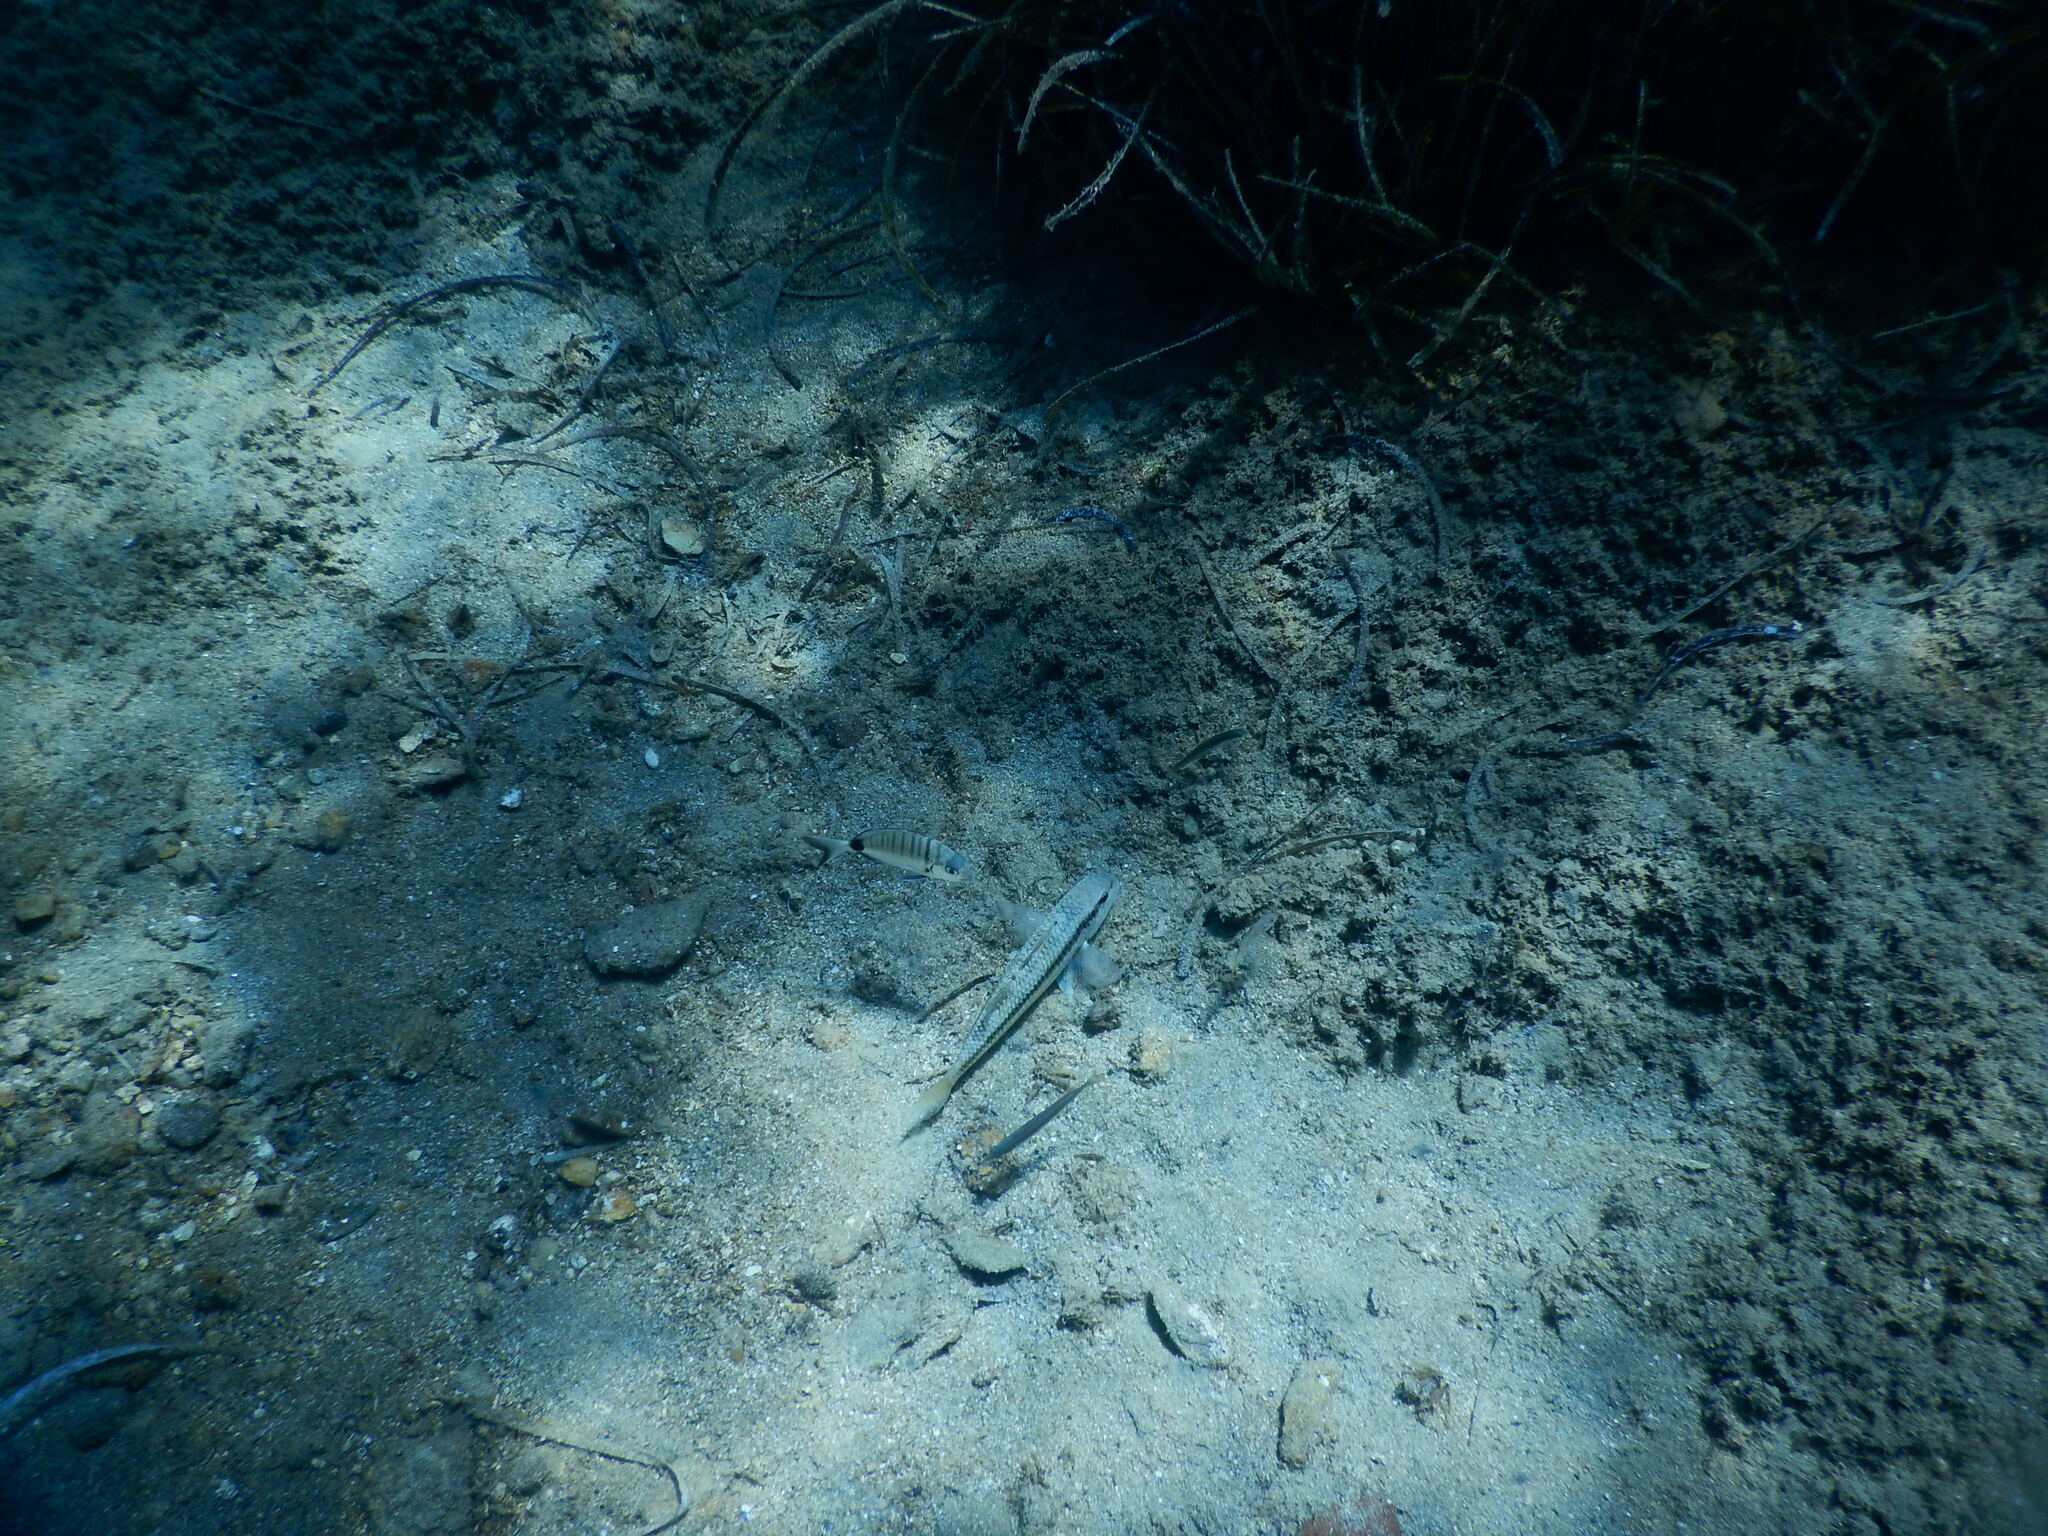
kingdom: Animalia
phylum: Chordata
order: Perciformes
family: Mullidae
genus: Mullus
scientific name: Mullus surmuletus
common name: Red mullet
